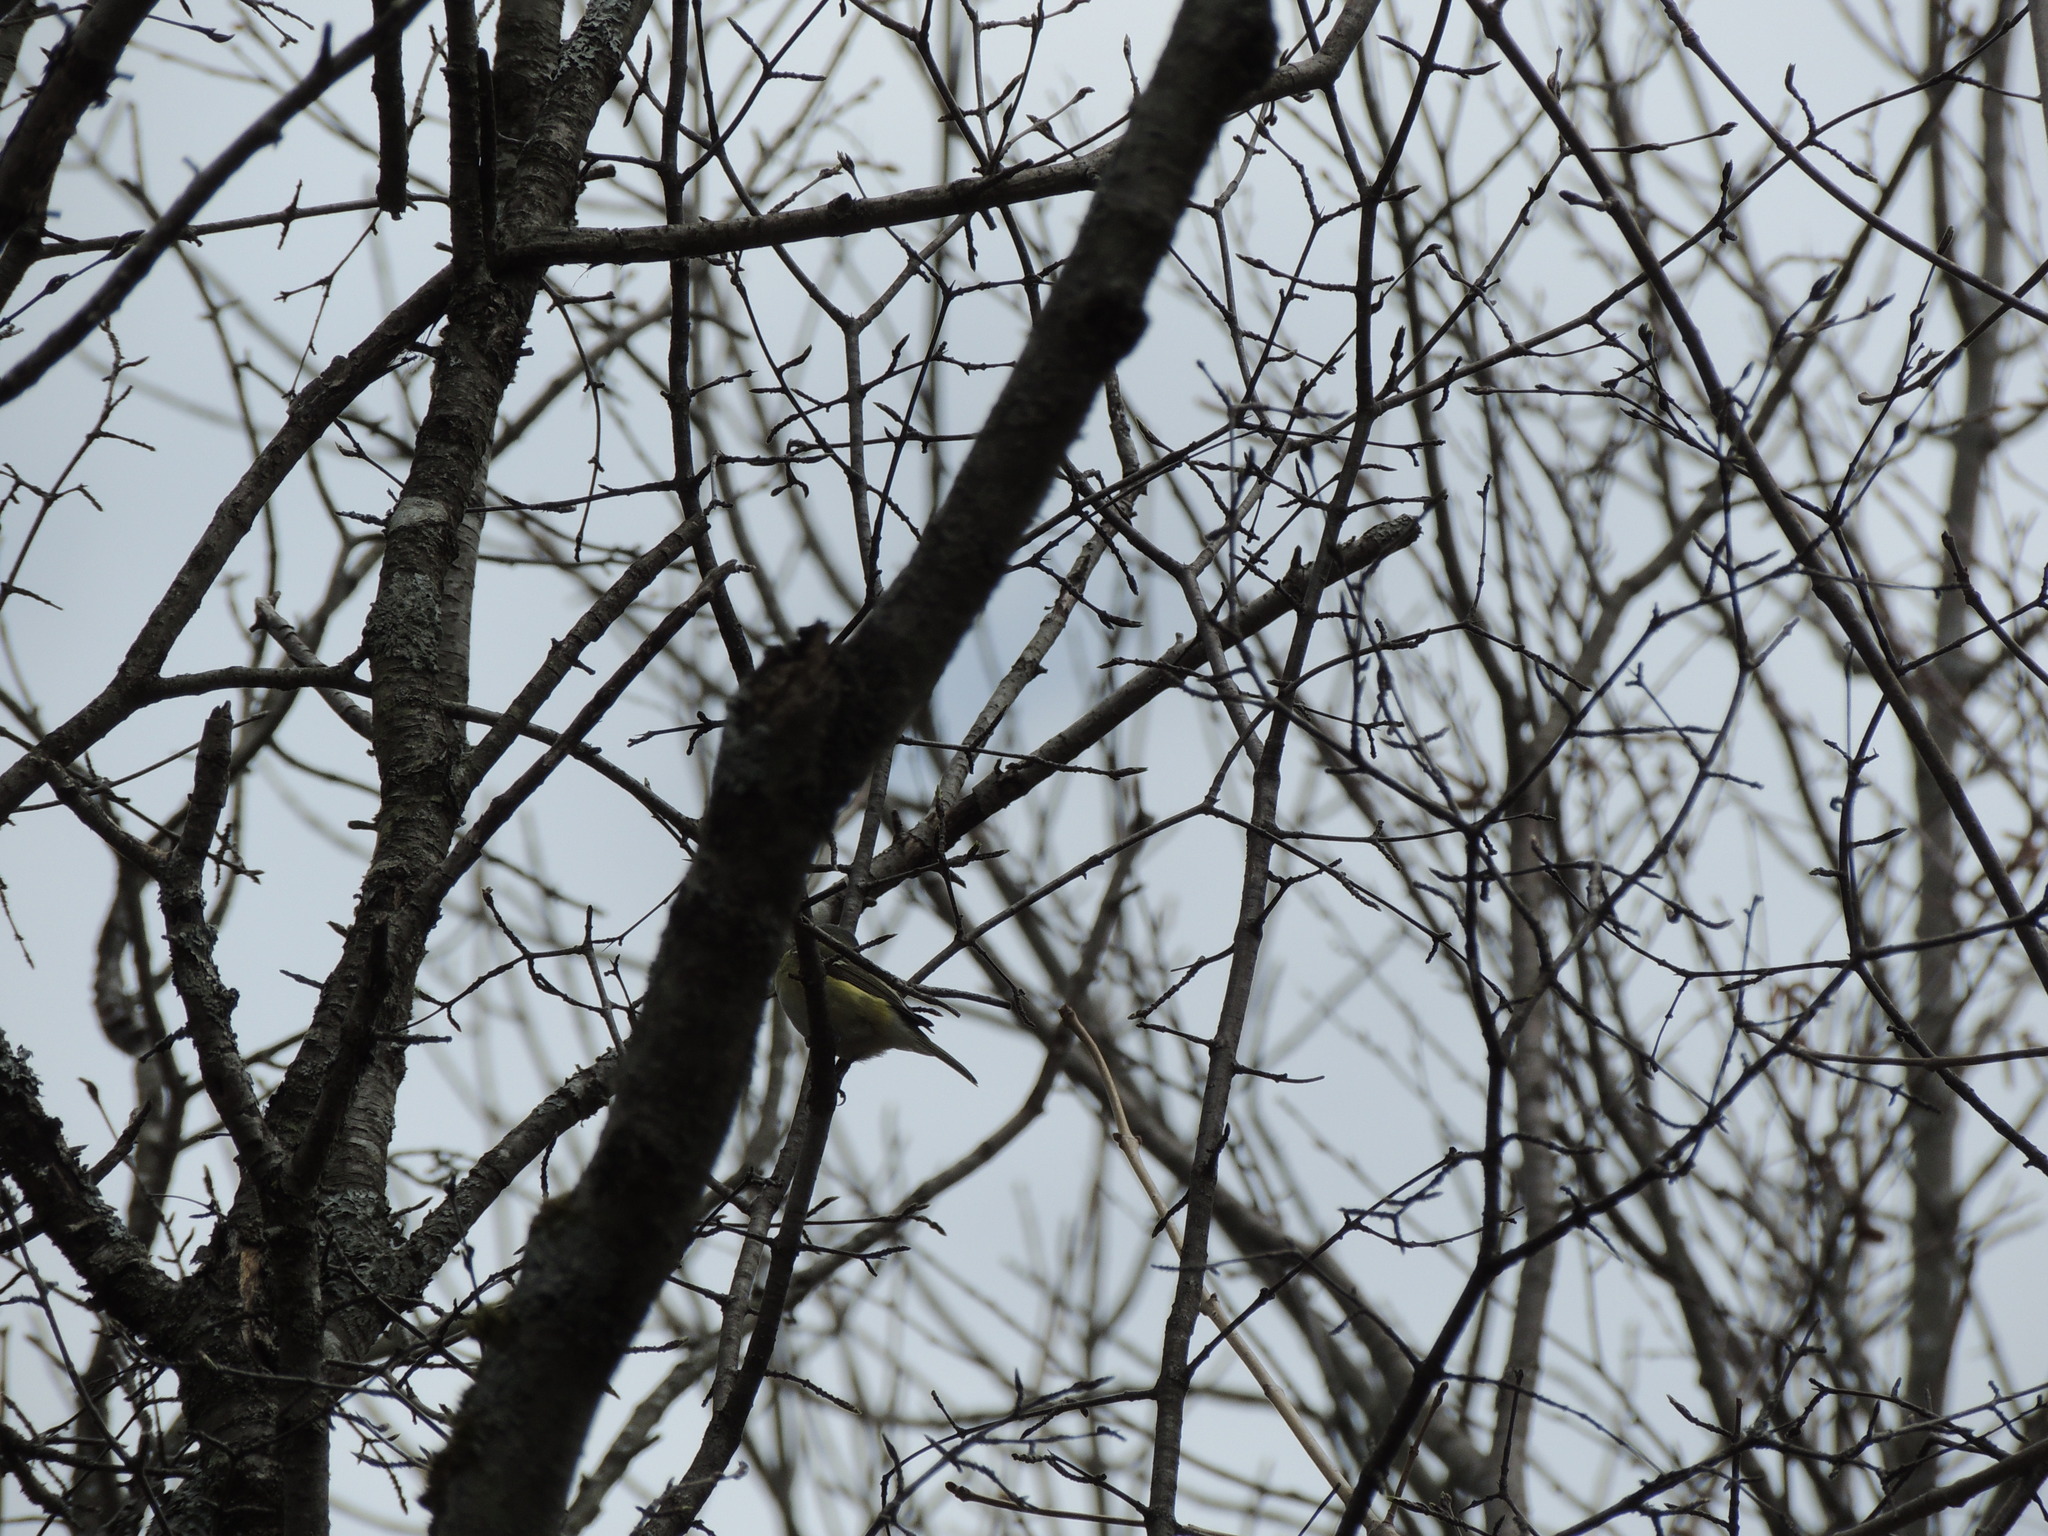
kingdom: Animalia
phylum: Chordata
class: Aves
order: Passeriformes
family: Vireonidae
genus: Vireo
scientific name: Vireo solitarius
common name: Blue-headed vireo
